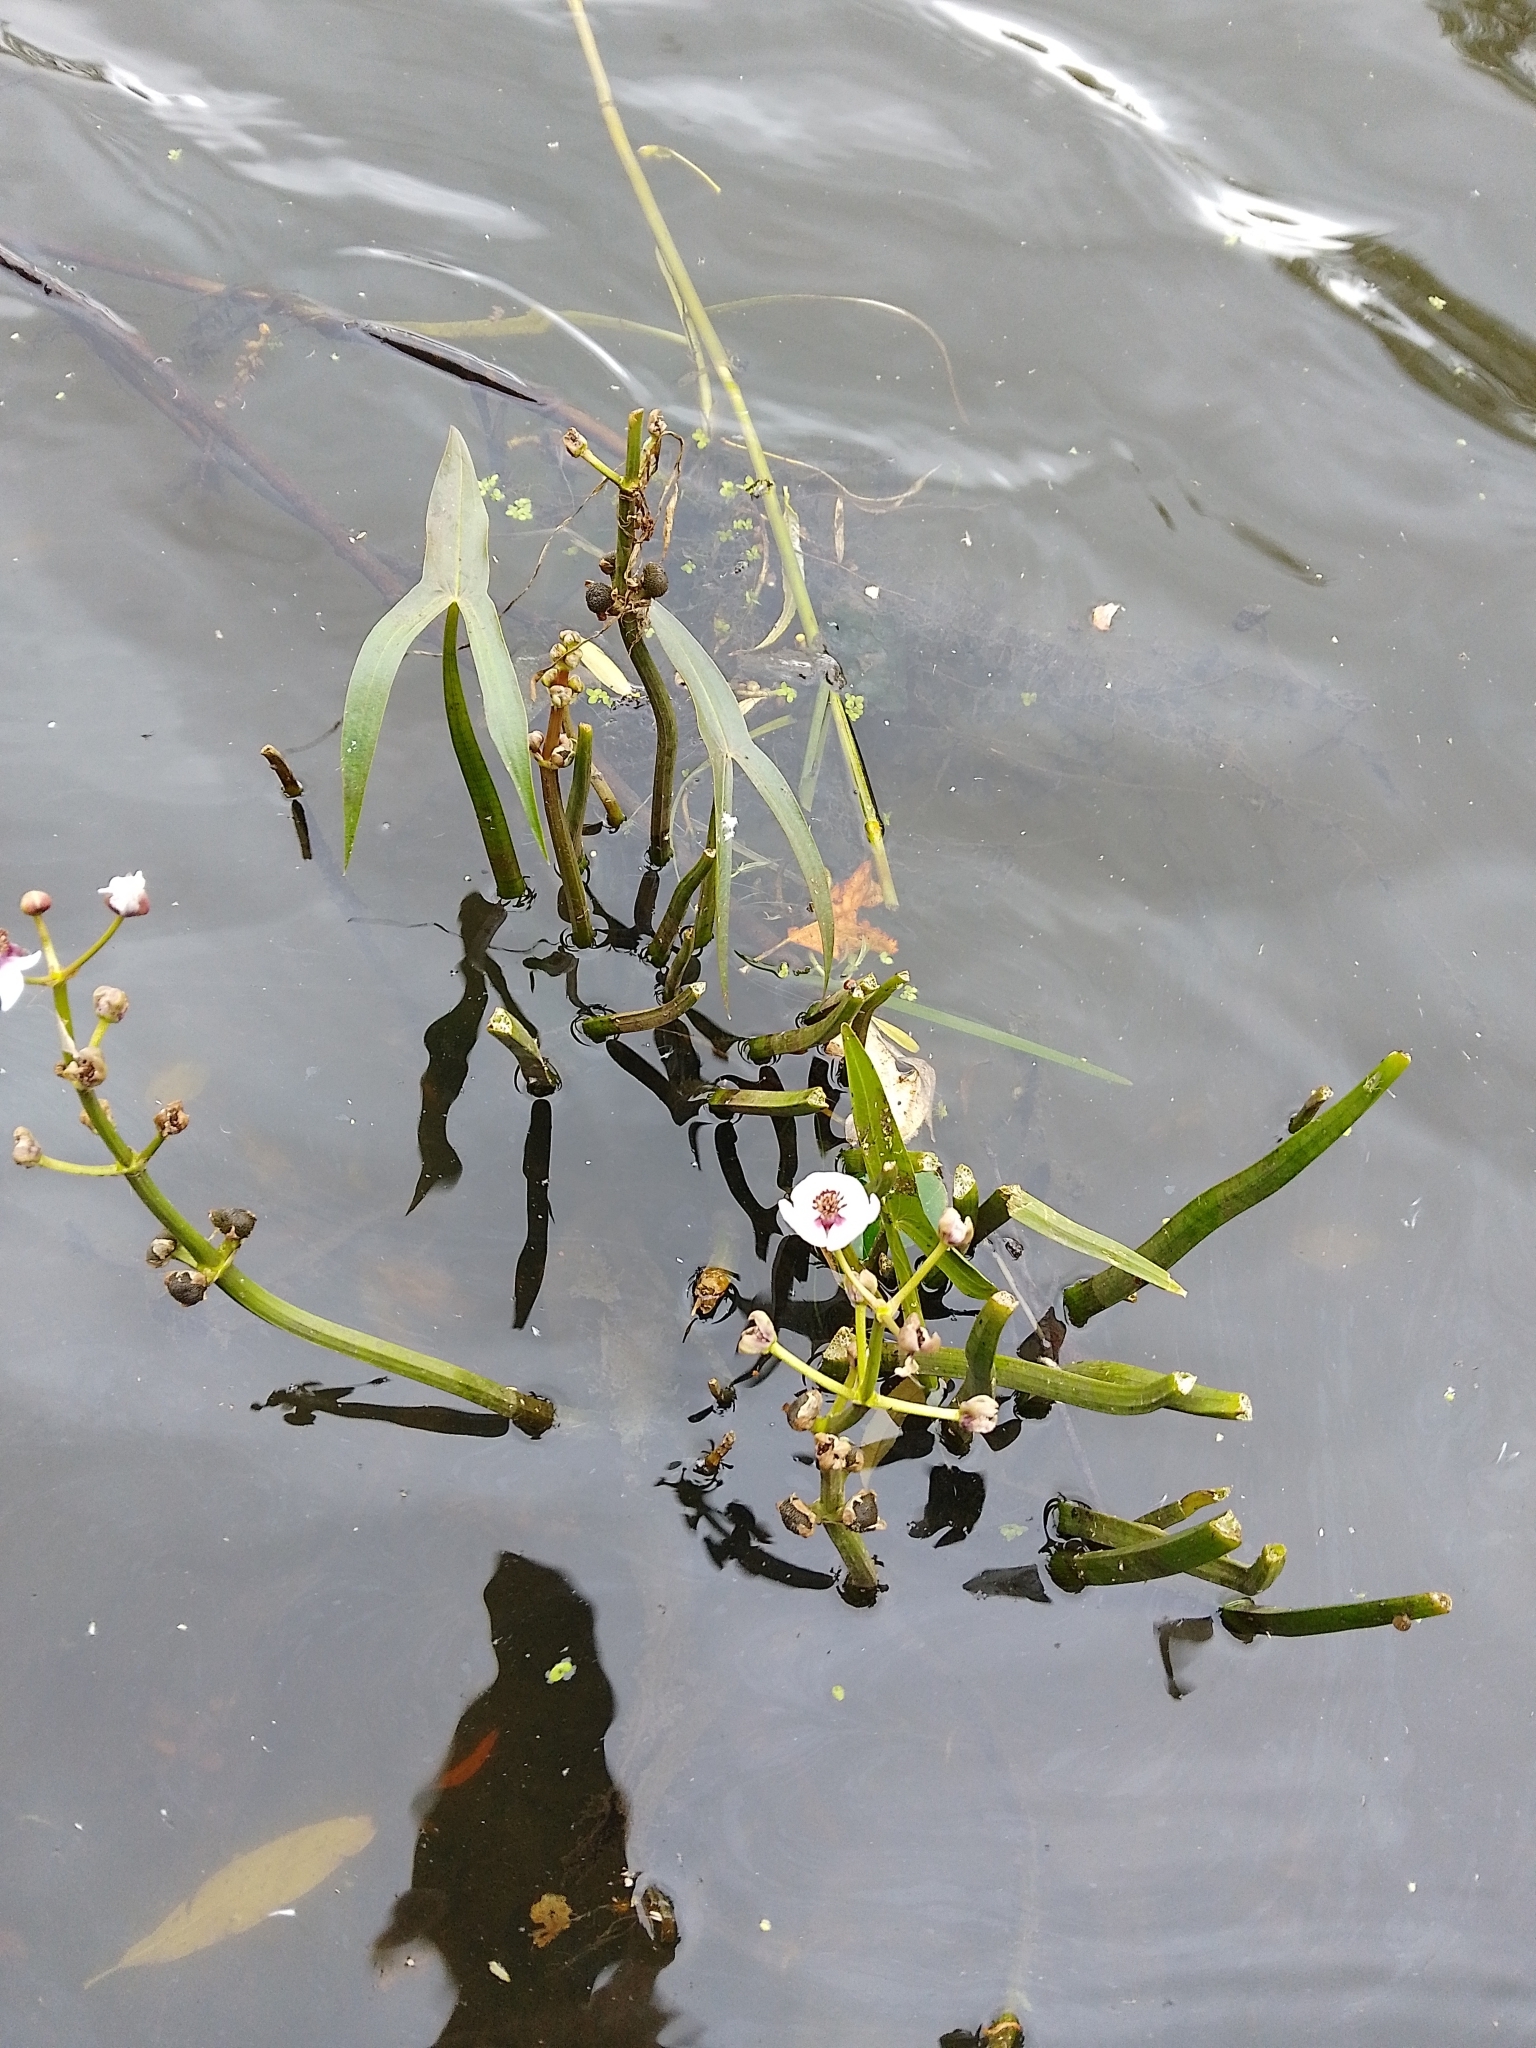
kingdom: Plantae
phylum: Tracheophyta
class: Liliopsida
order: Alismatales
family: Alismataceae
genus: Sagittaria
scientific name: Sagittaria sagittifolia
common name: Arrowhead
